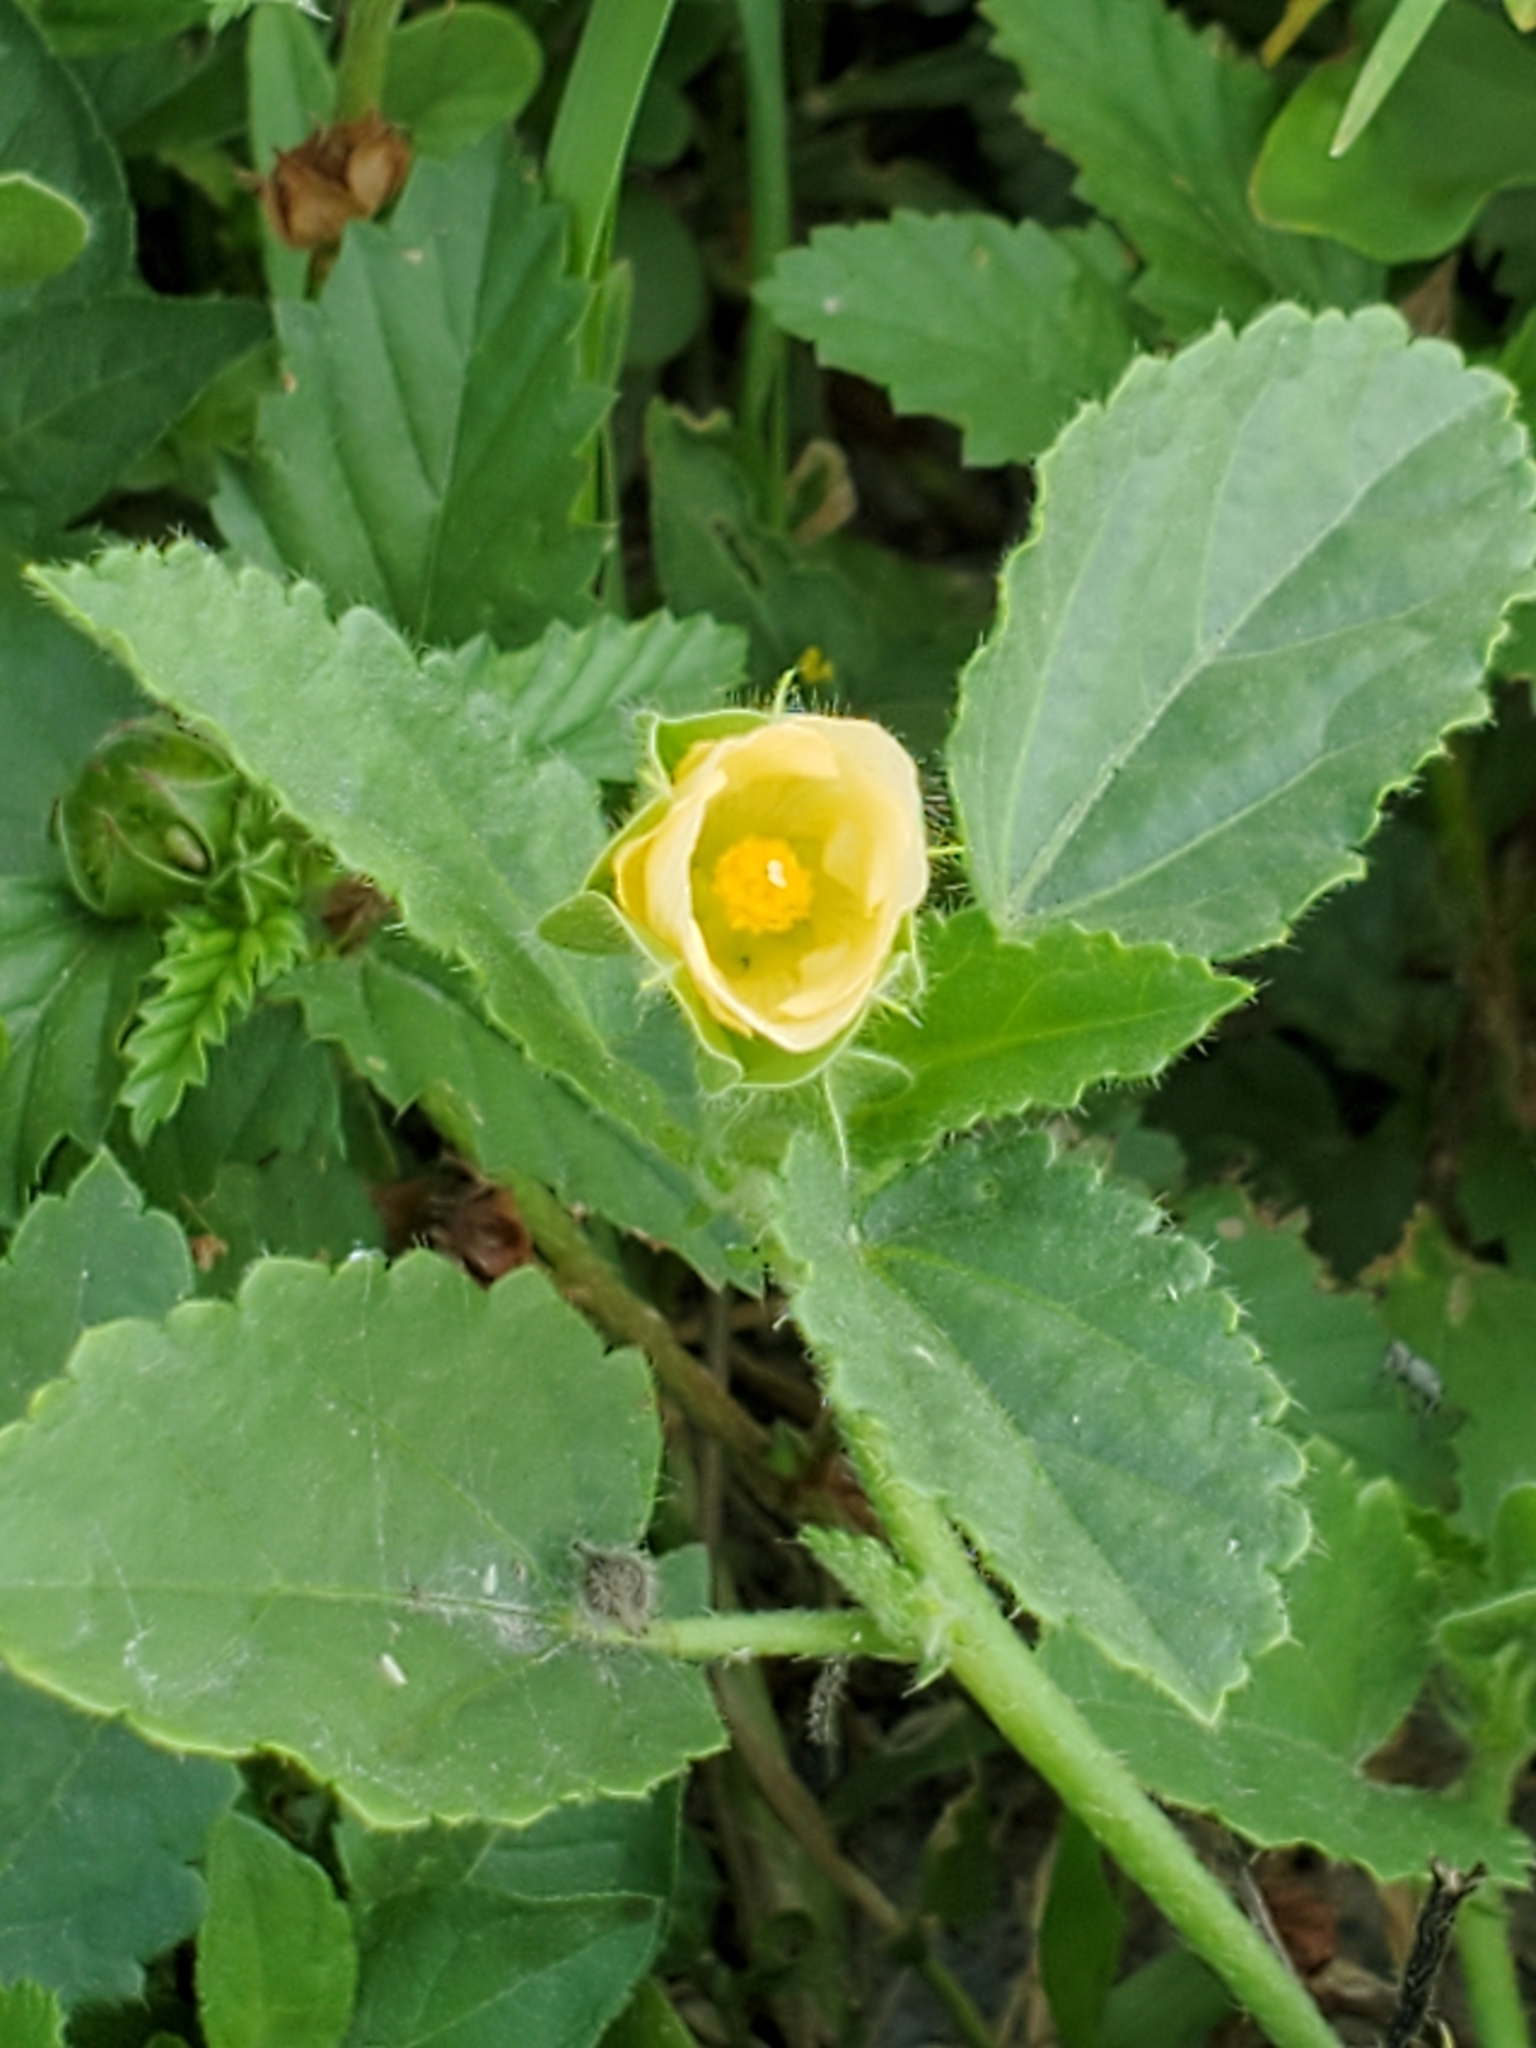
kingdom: Plantae
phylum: Tracheophyta
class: Magnoliopsida
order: Malvales
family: Malvaceae
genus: Rhynchosida
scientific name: Rhynchosida physocalyx
